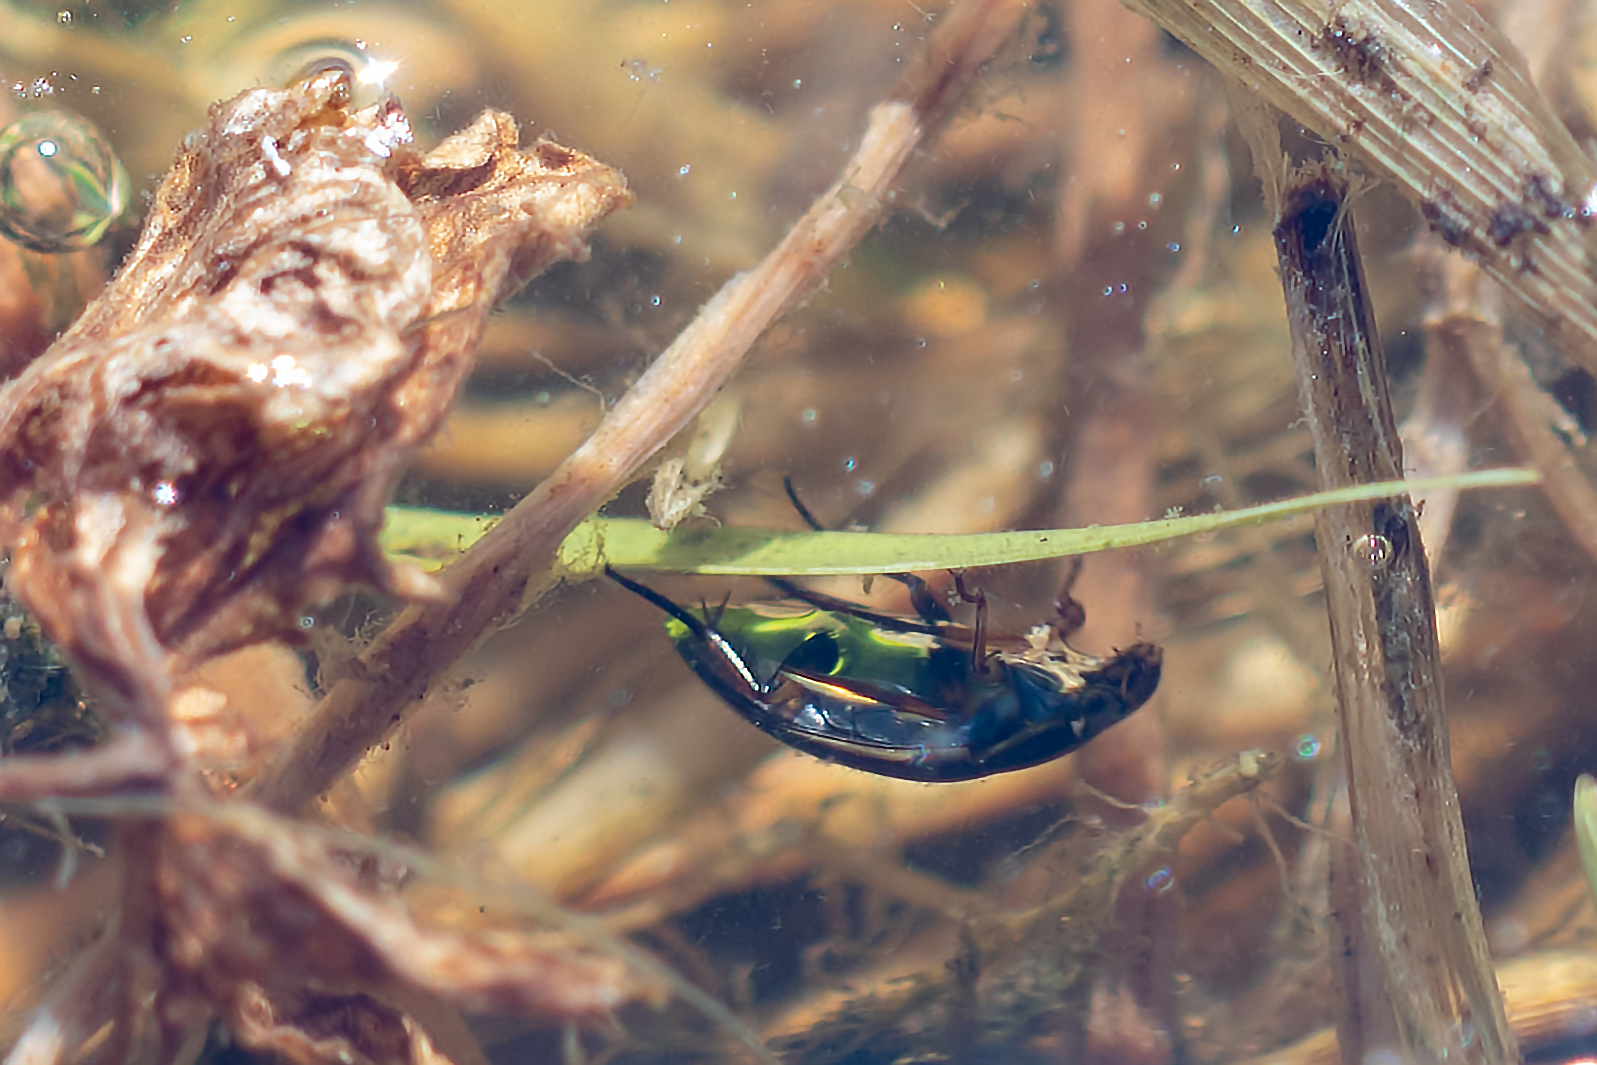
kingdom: Animalia
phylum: Arthropoda
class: Insecta
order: Coleoptera
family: Hydrophilidae
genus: Tropisternus
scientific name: Tropisternus lateralis
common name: Lateral-banded water scavenger beetle
